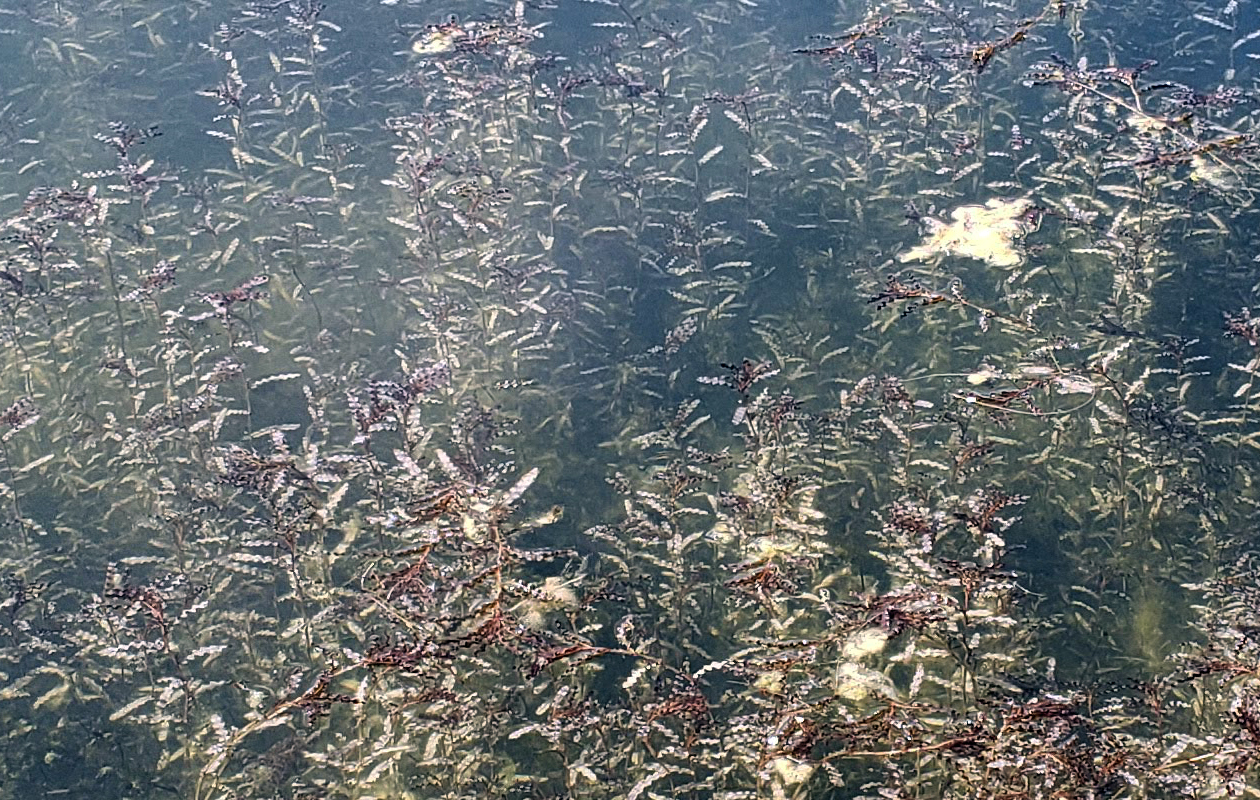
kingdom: Plantae
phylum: Tracheophyta
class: Liliopsida
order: Alismatales
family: Potamogetonaceae
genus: Potamogeton
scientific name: Potamogeton crispus
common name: Curled pondweed
